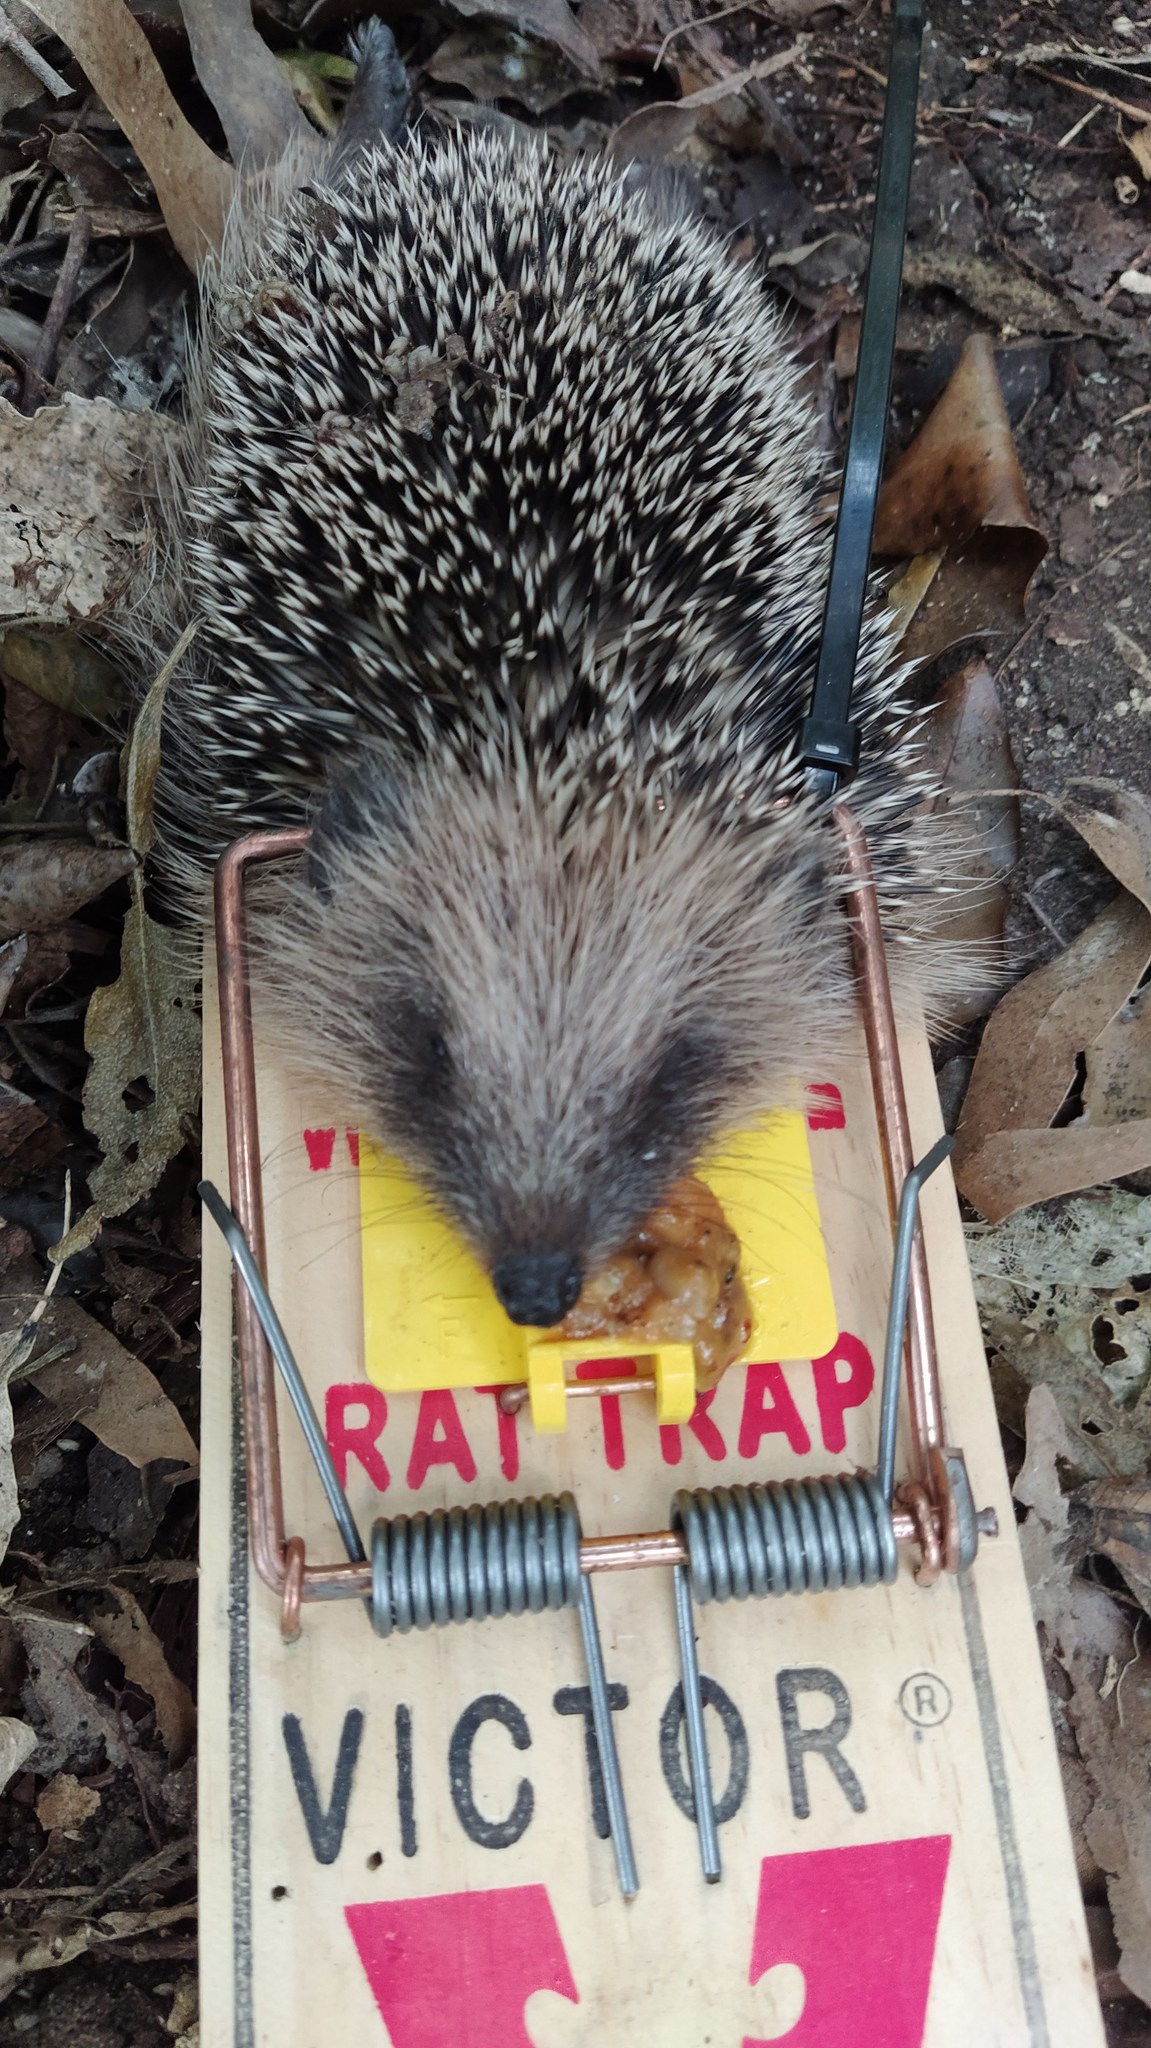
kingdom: Animalia
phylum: Chordata
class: Mammalia
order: Erinaceomorpha
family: Erinaceidae
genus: Erinaceus
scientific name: Erinaceus europaeus
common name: West european hedgehog
